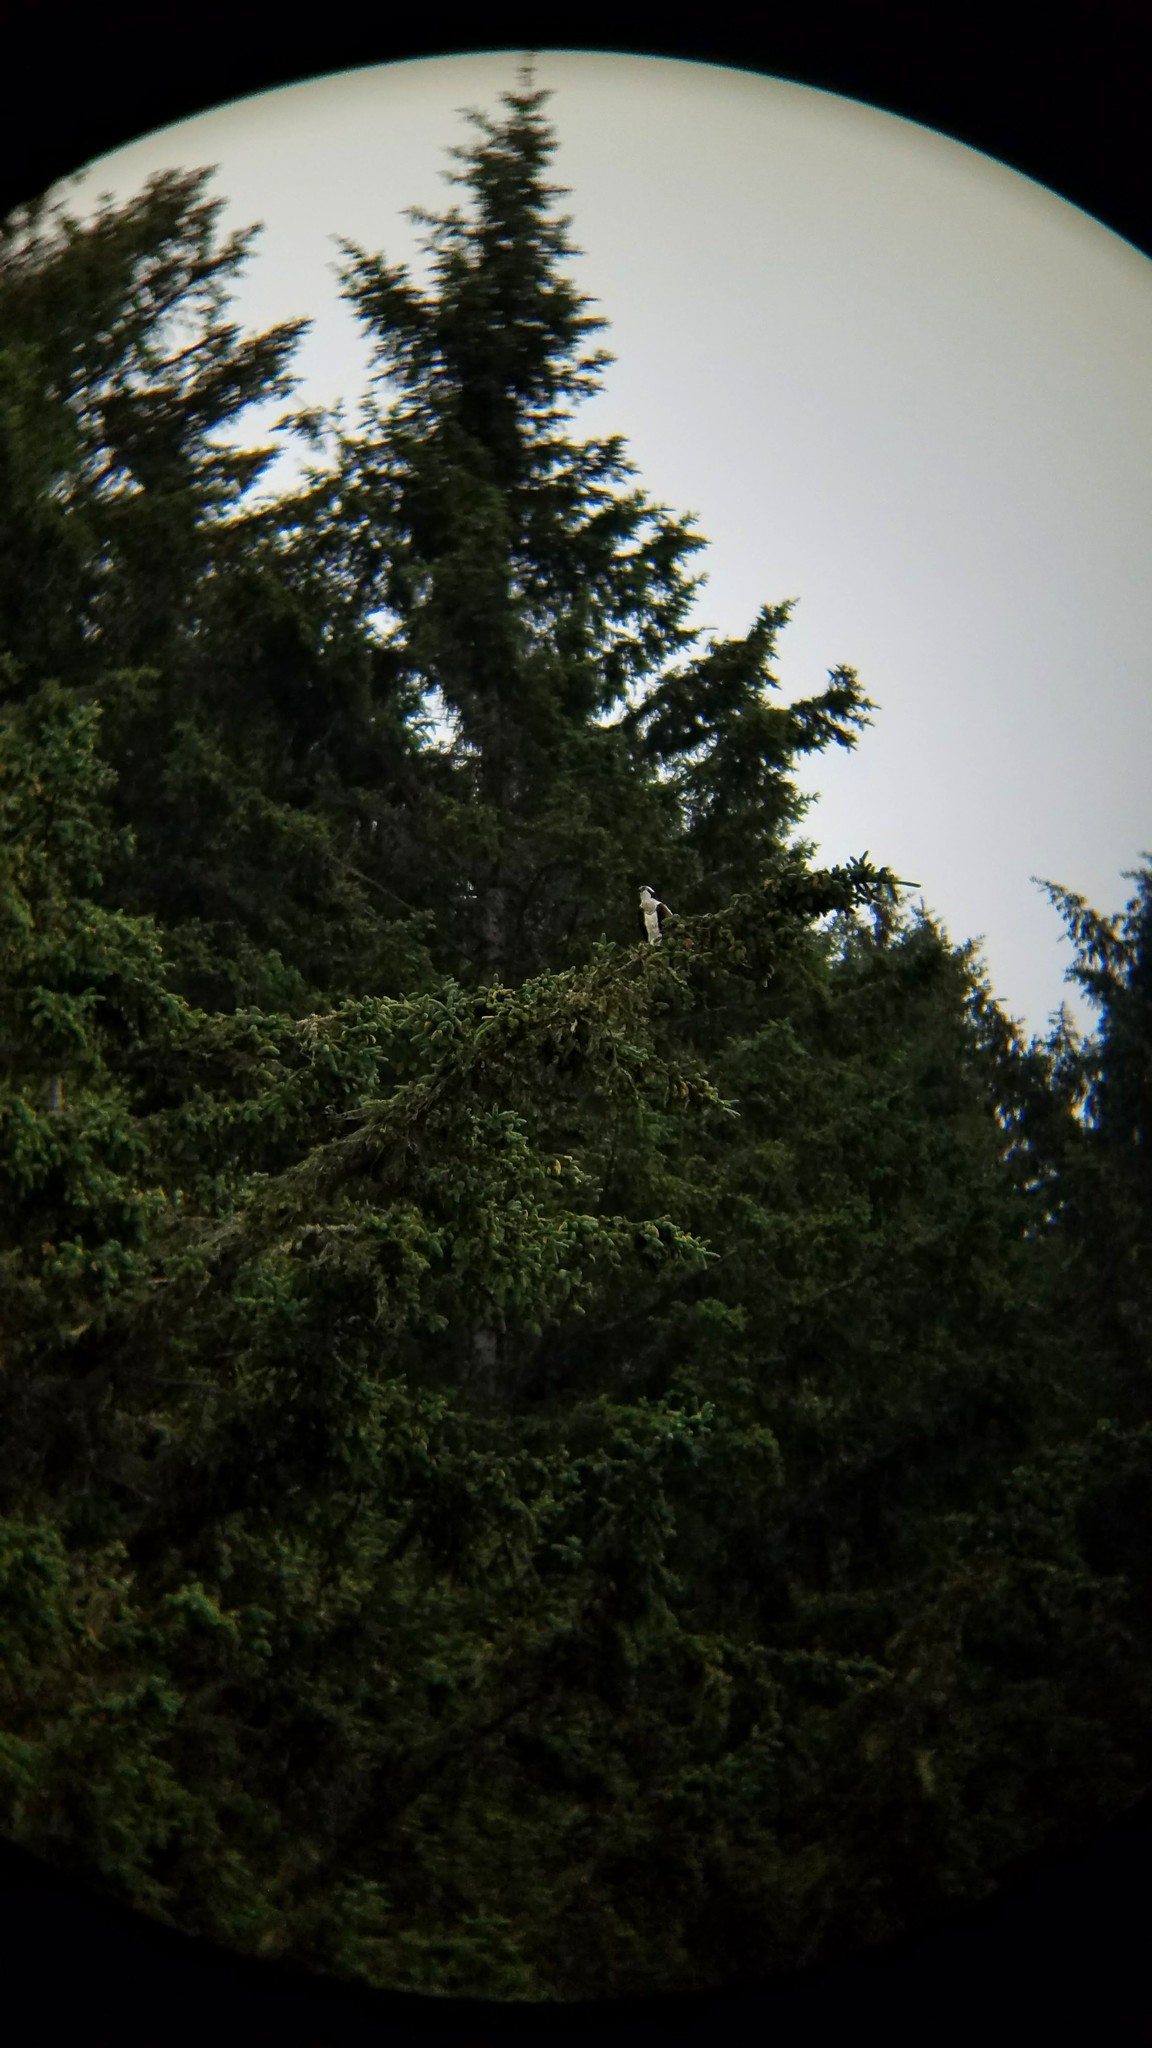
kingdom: Animalia
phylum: Chordata
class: Aves
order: Accipitriformes
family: Pandionidae
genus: Pandion
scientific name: Pandion haliaetus
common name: Osprey
